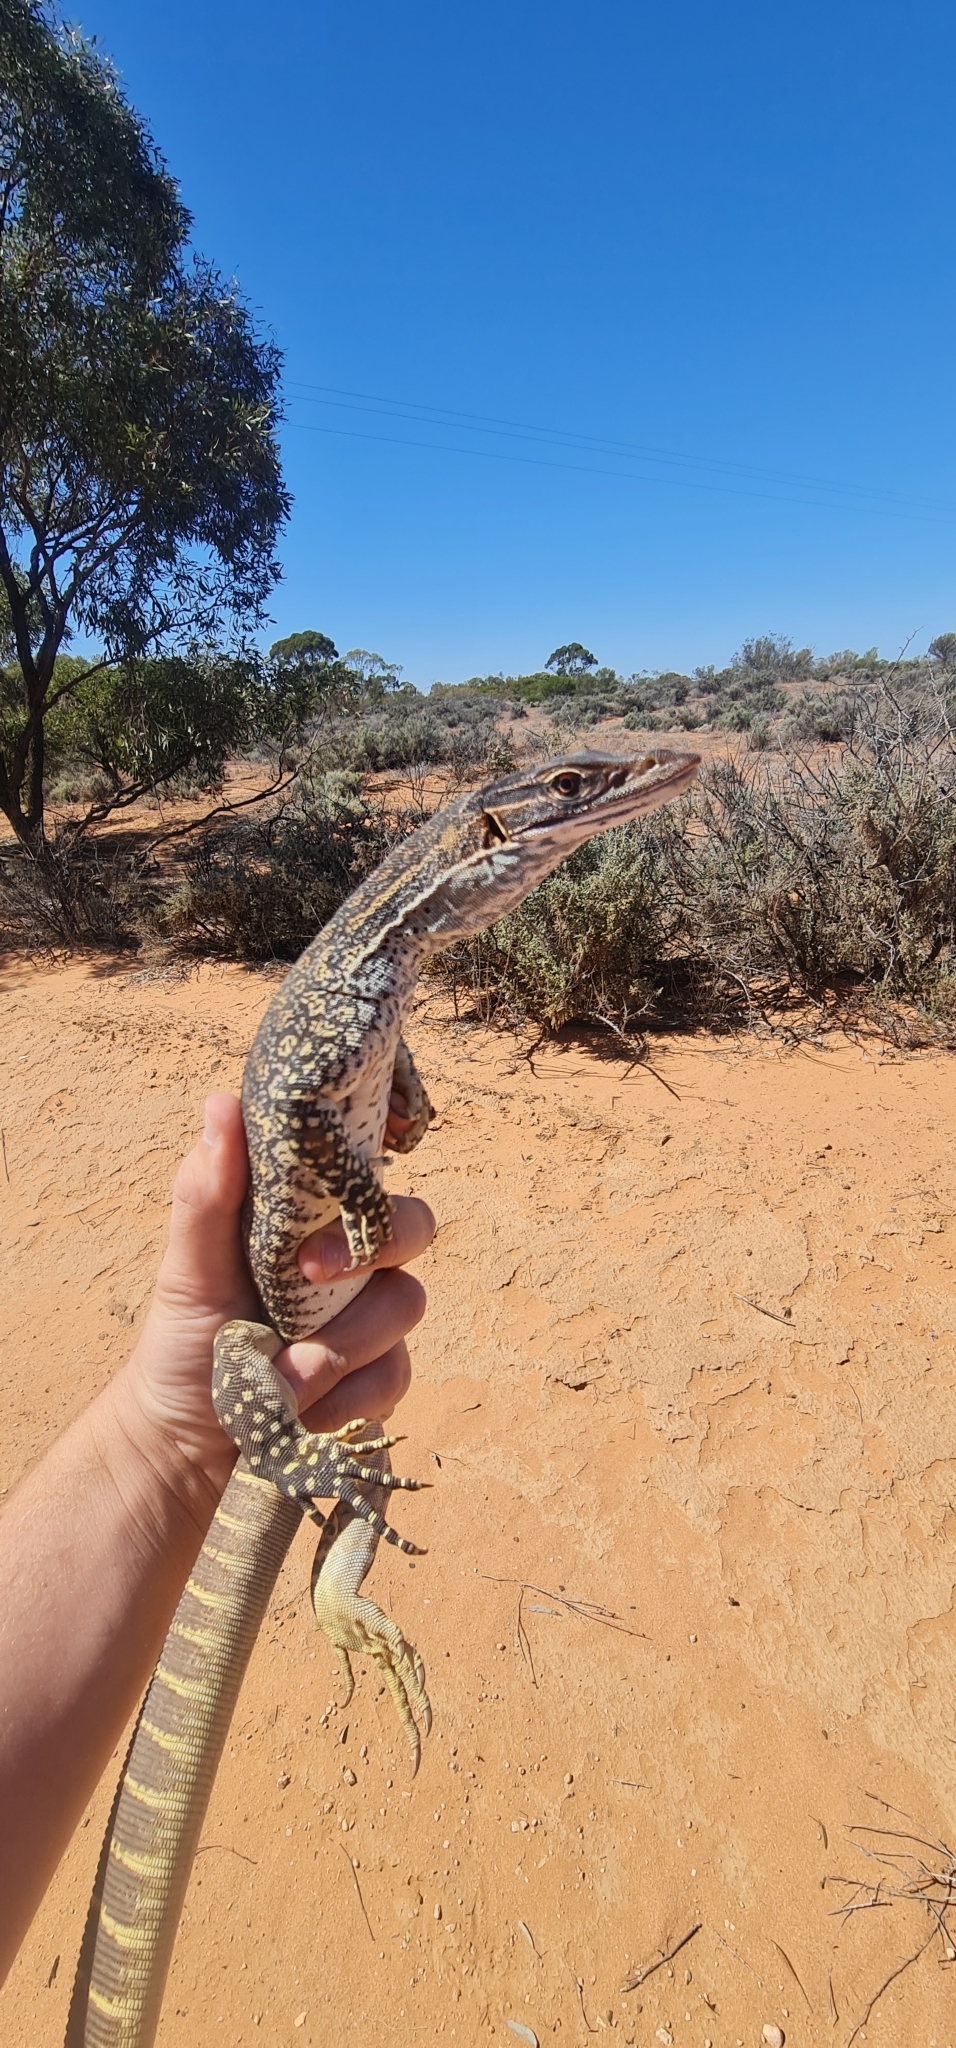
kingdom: Animalia
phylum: Chordata
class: Squamata
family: Varanidae
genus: Varanus
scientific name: Varanus gouldii
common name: Gould's goanna
